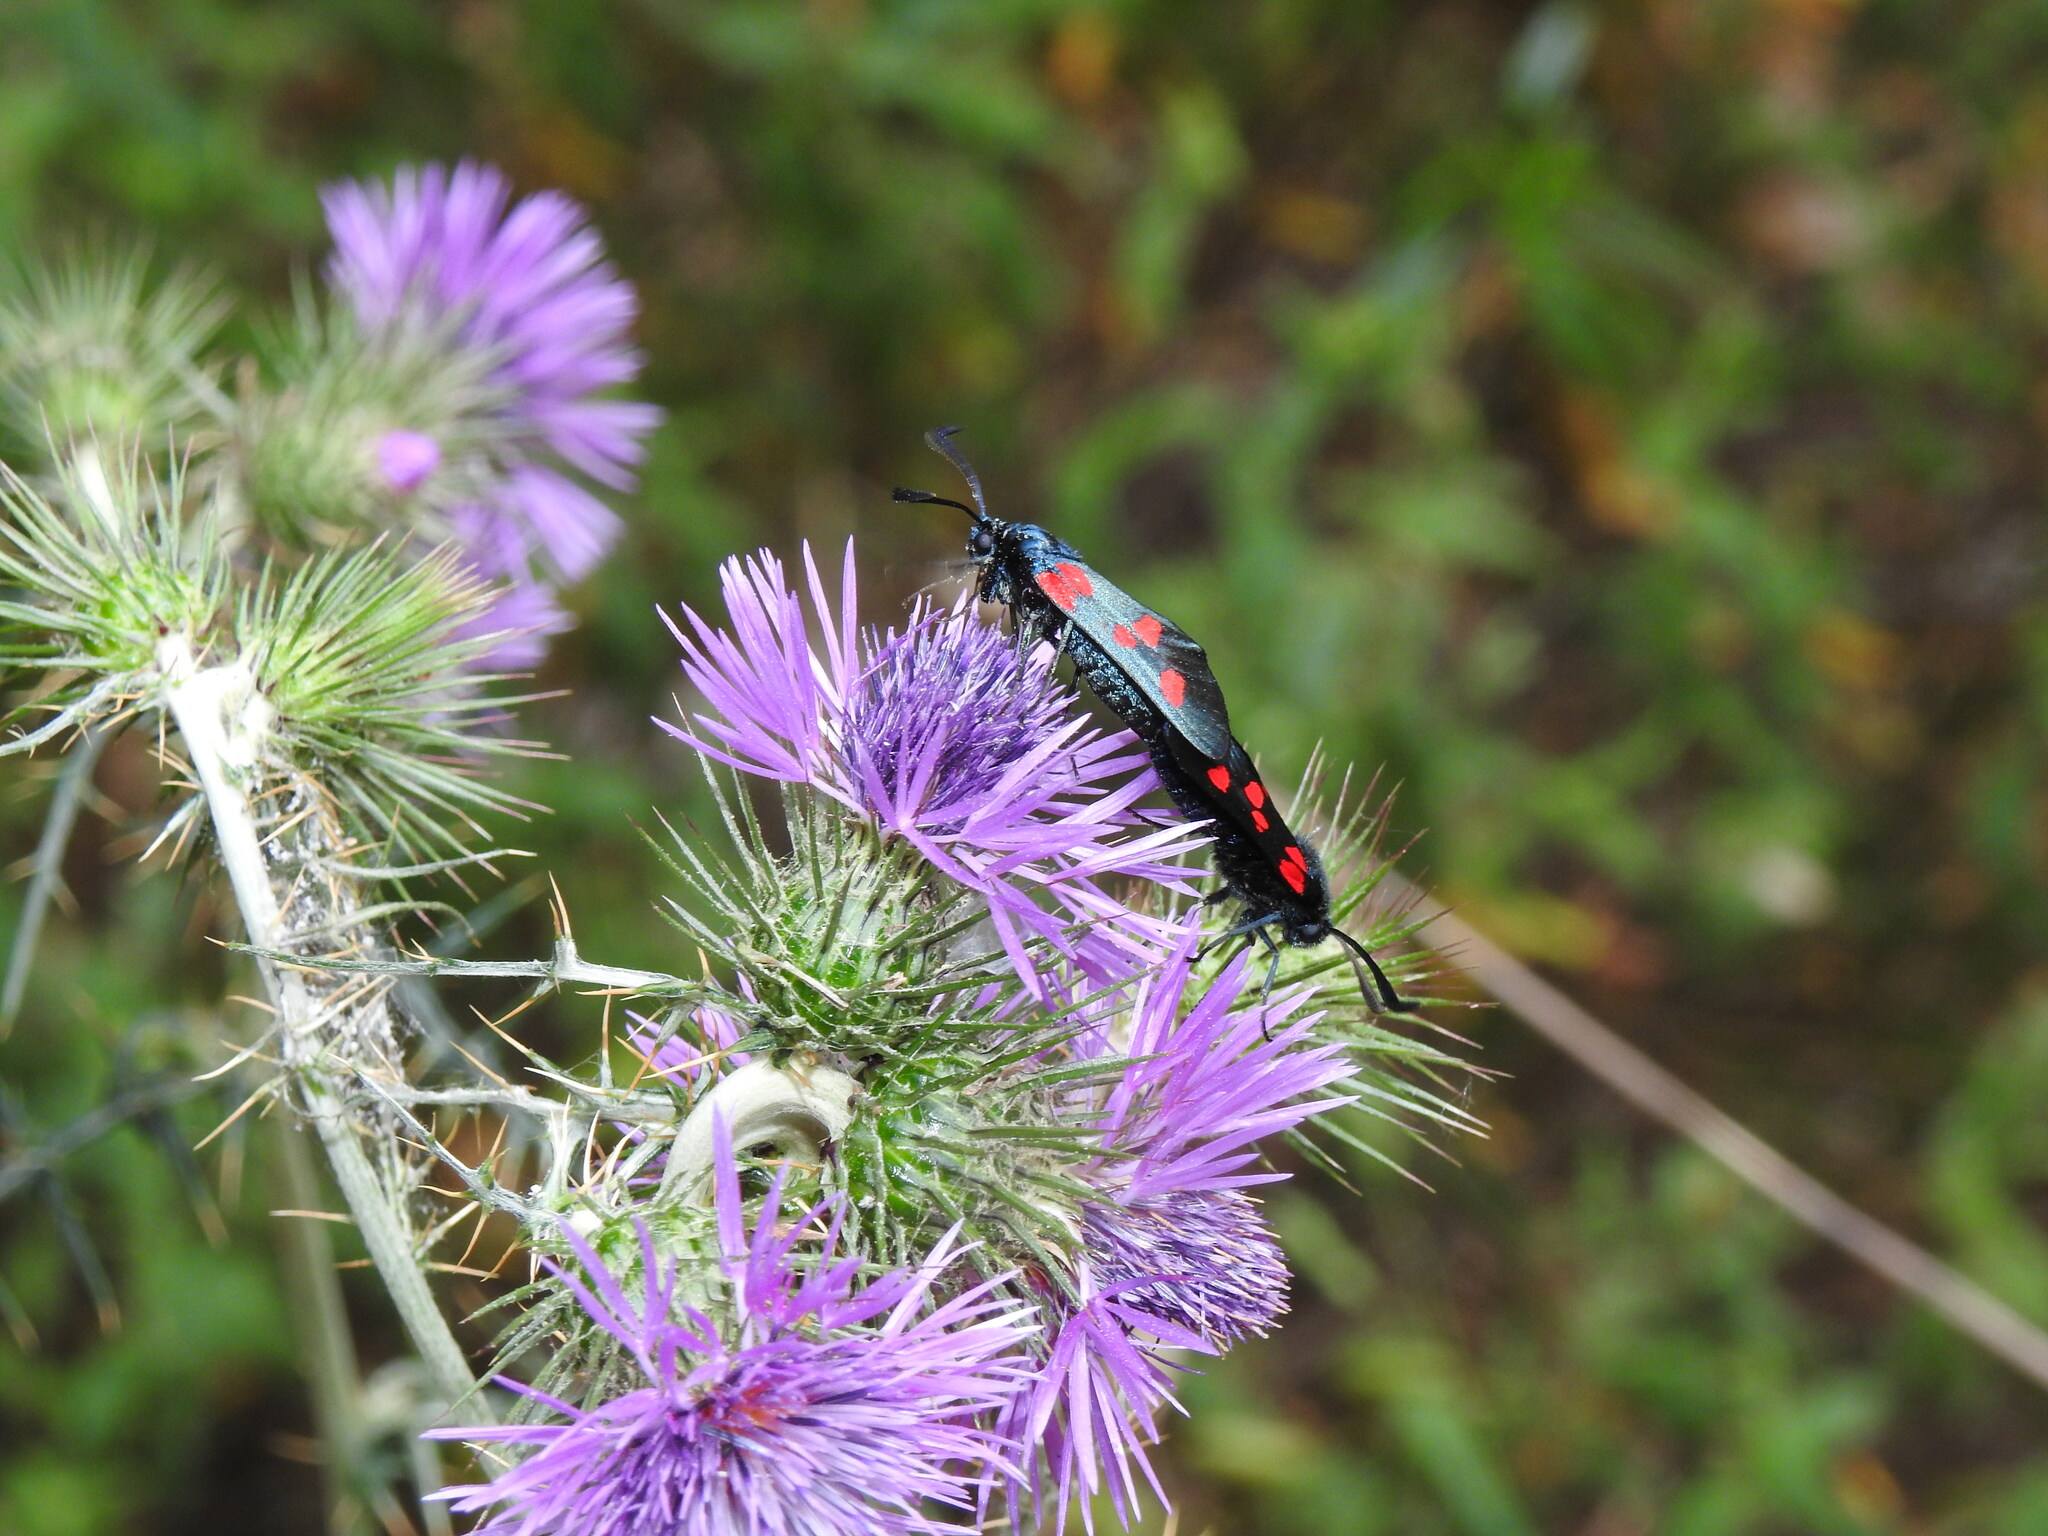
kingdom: Animalia
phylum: Arthropoda
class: Insecta
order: Lepidoptera
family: Zygaenidae
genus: Zygaena
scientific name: Zygaena trifolii
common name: Five-spot burnet
